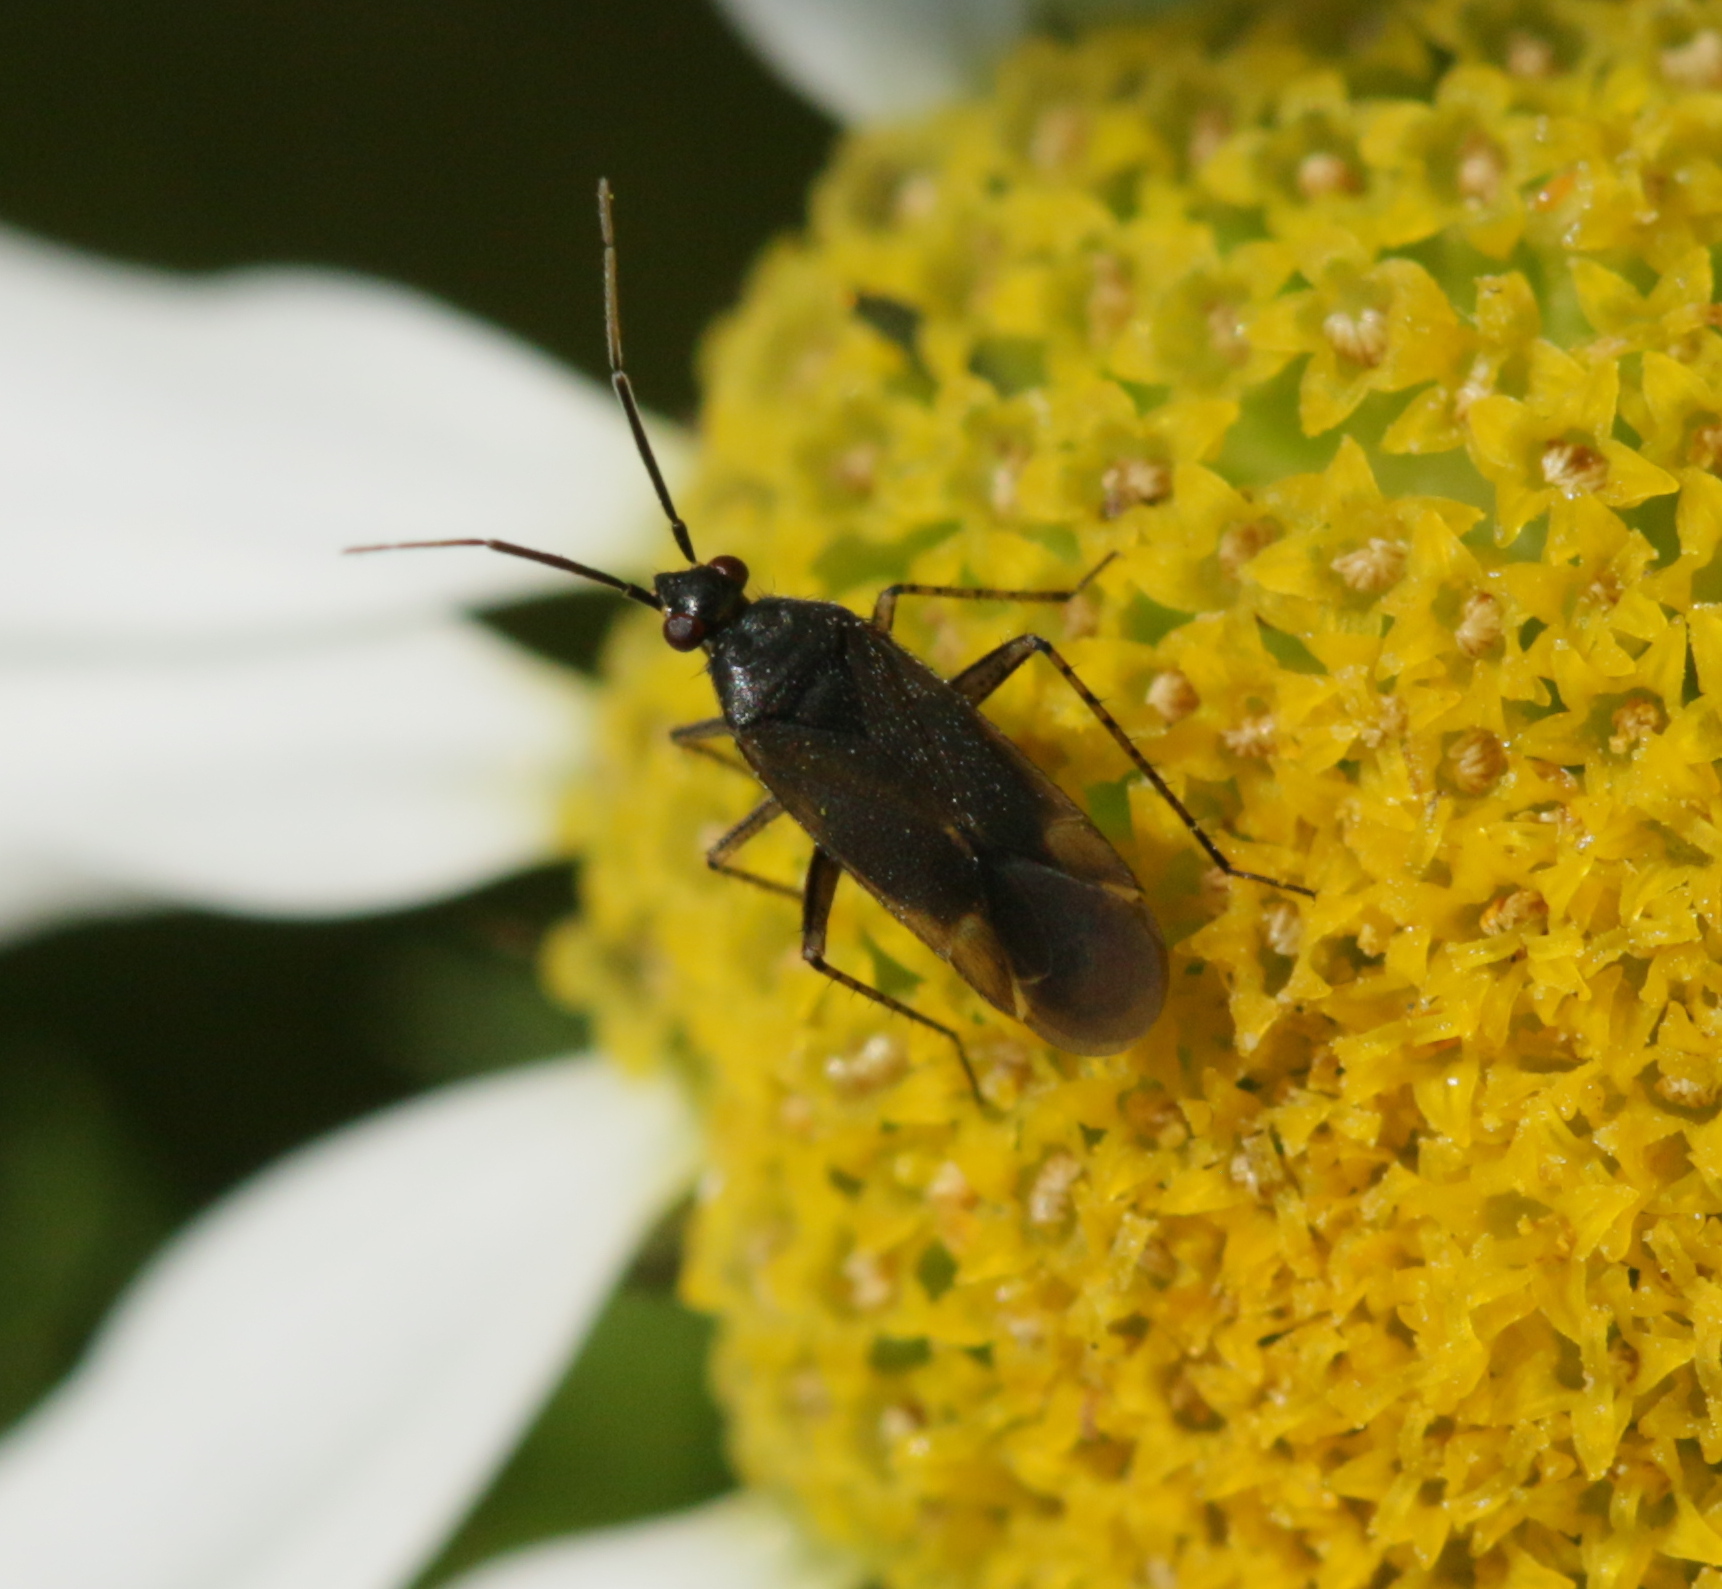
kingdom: Animalia
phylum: Arthropoda
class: Insecta
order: Hemiptera
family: Miridae
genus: Plagiognathus
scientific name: Plagiognathus arbustorum
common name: Plant bug
